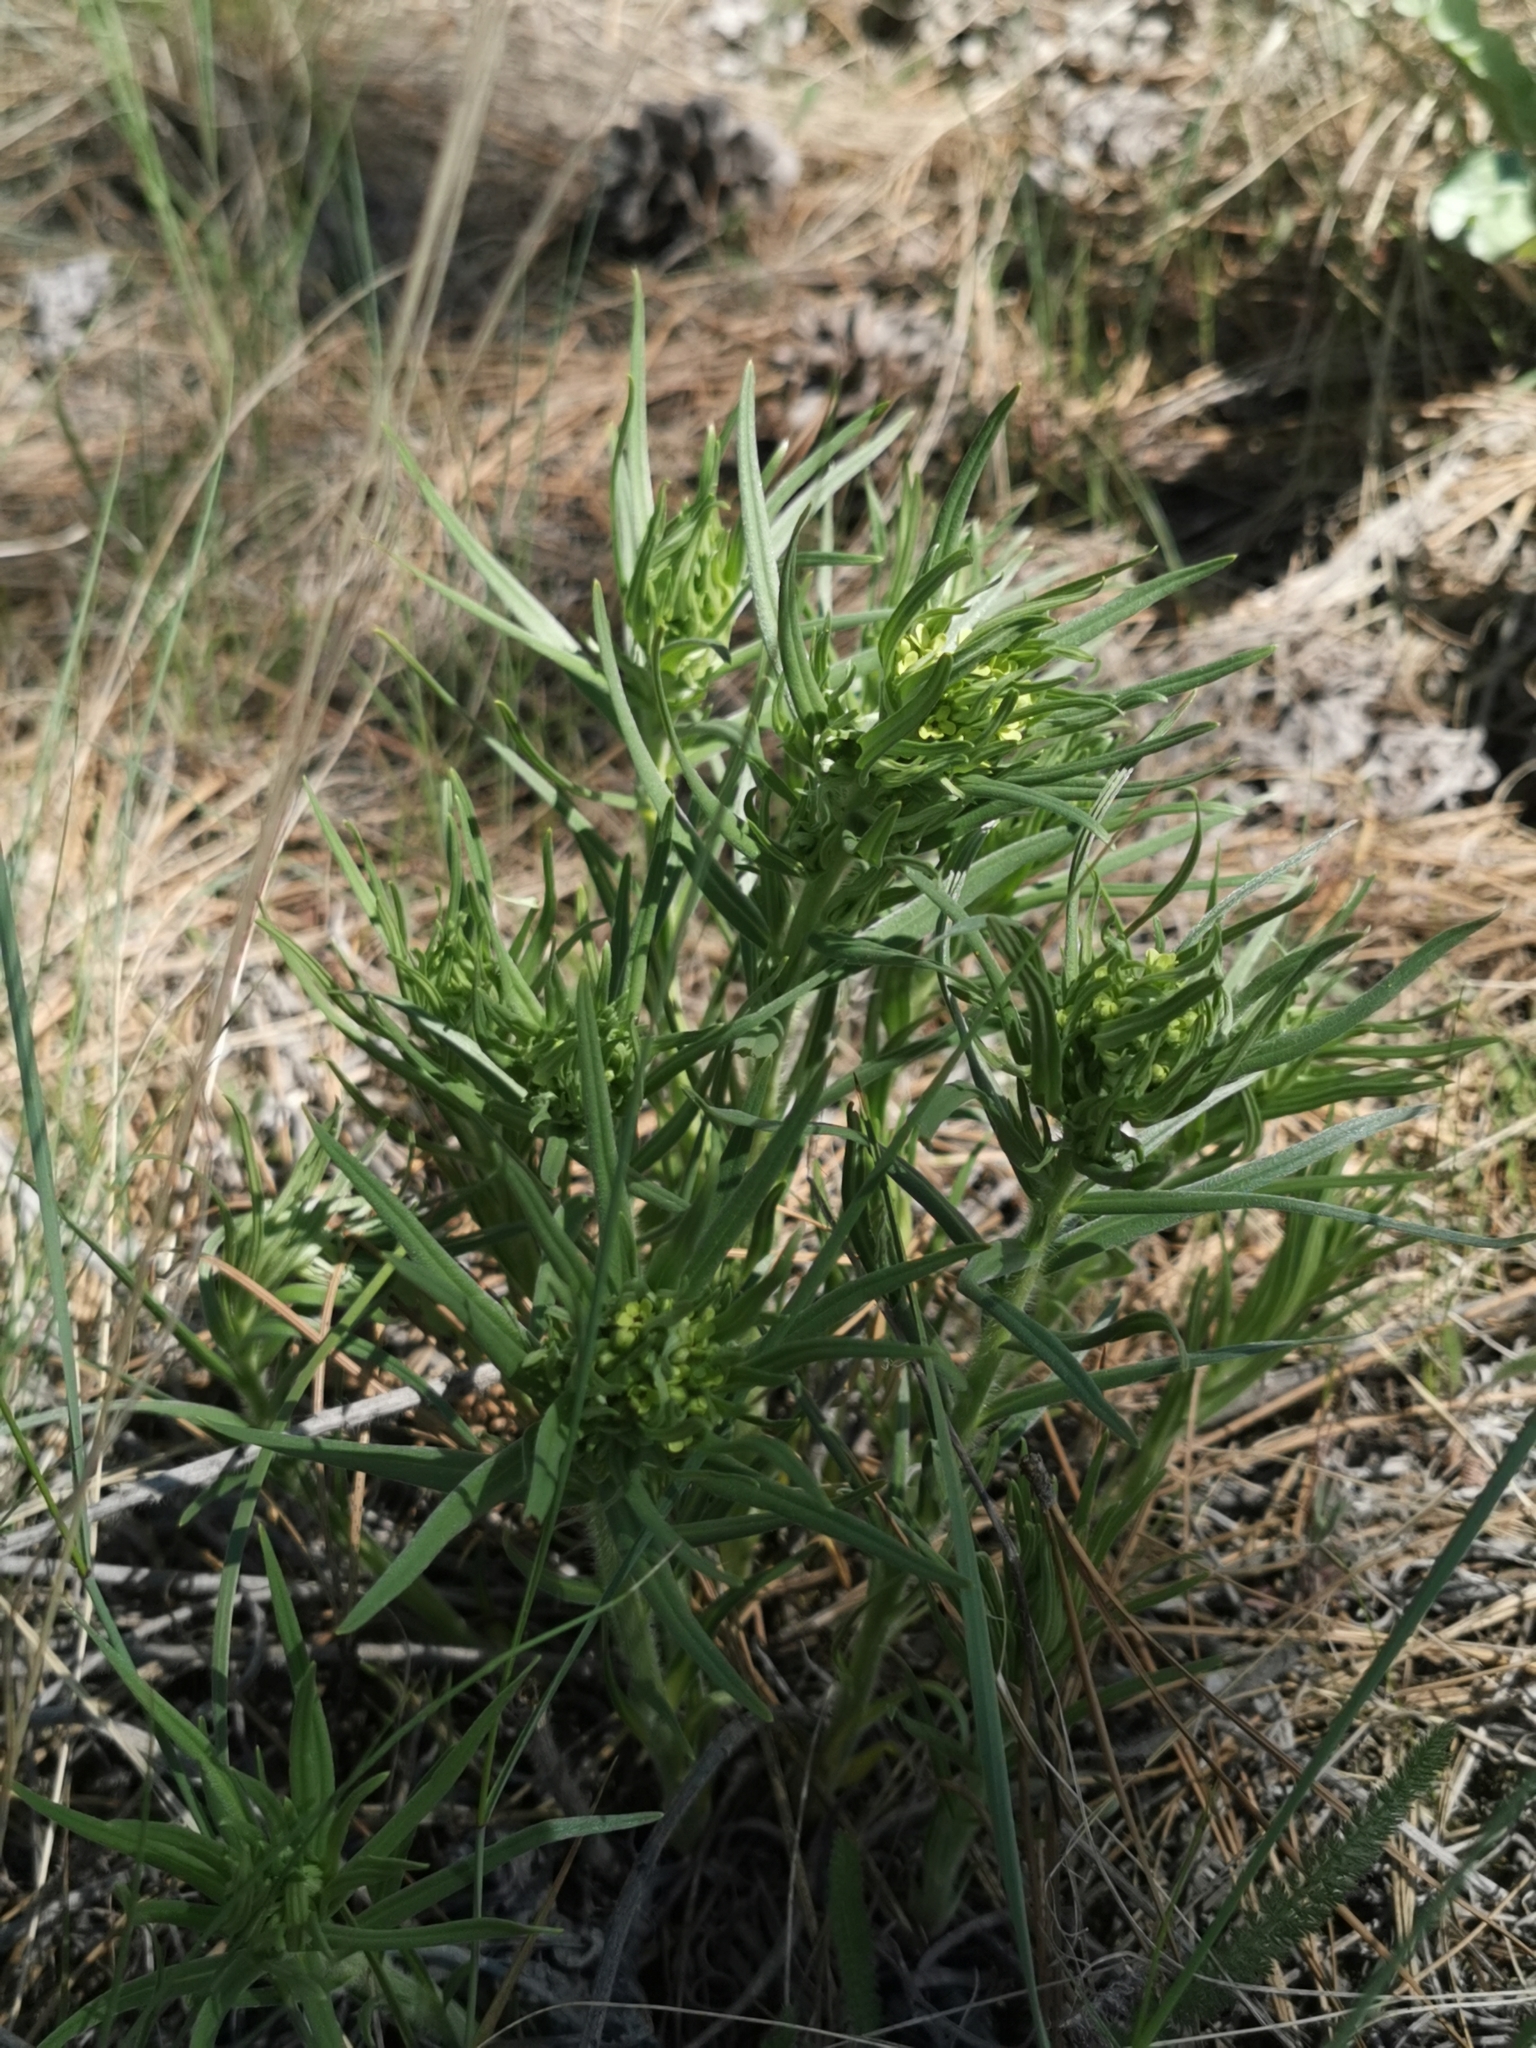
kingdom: Plantae
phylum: Tracheophyta
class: Magnoliopsida
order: Boraginales
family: Boraginaceae
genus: Lithospermum
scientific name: Lithospermum ruderale
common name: Western gromwell
